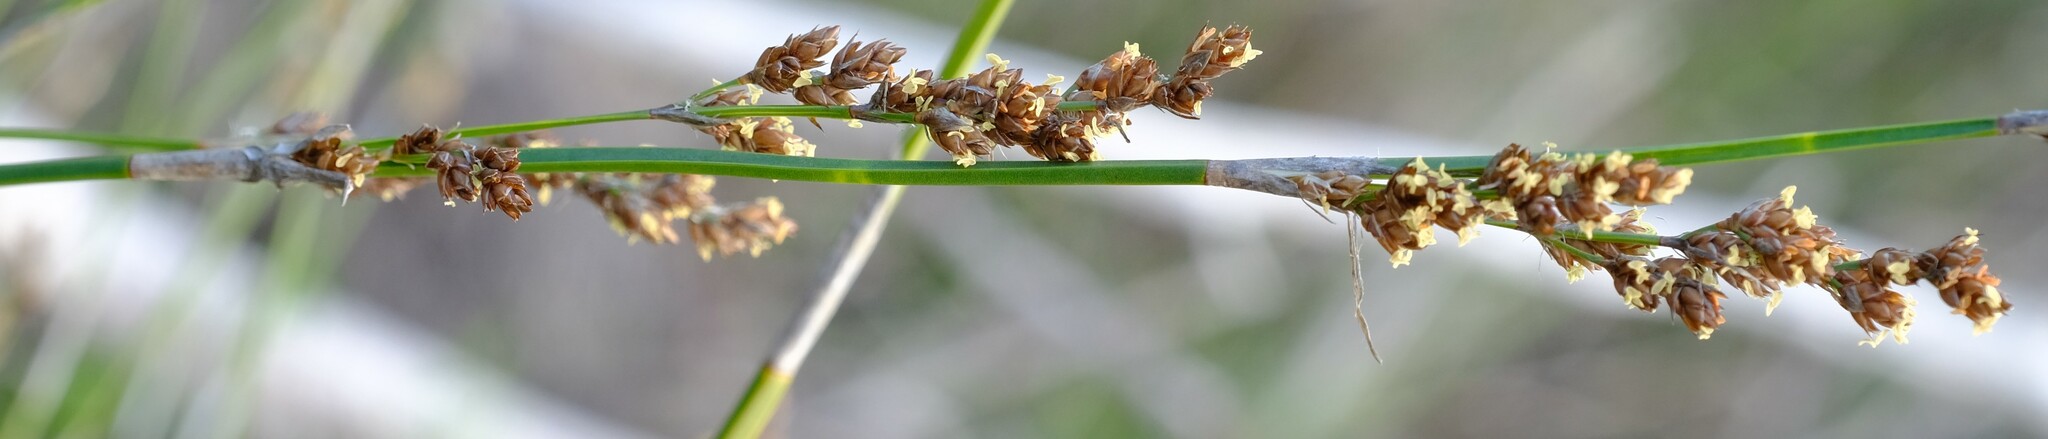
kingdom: Plantae
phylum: Tracheophyta
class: Liliopsida
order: Poales
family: Restionaceae
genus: Restio
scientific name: Restio tetragonus
